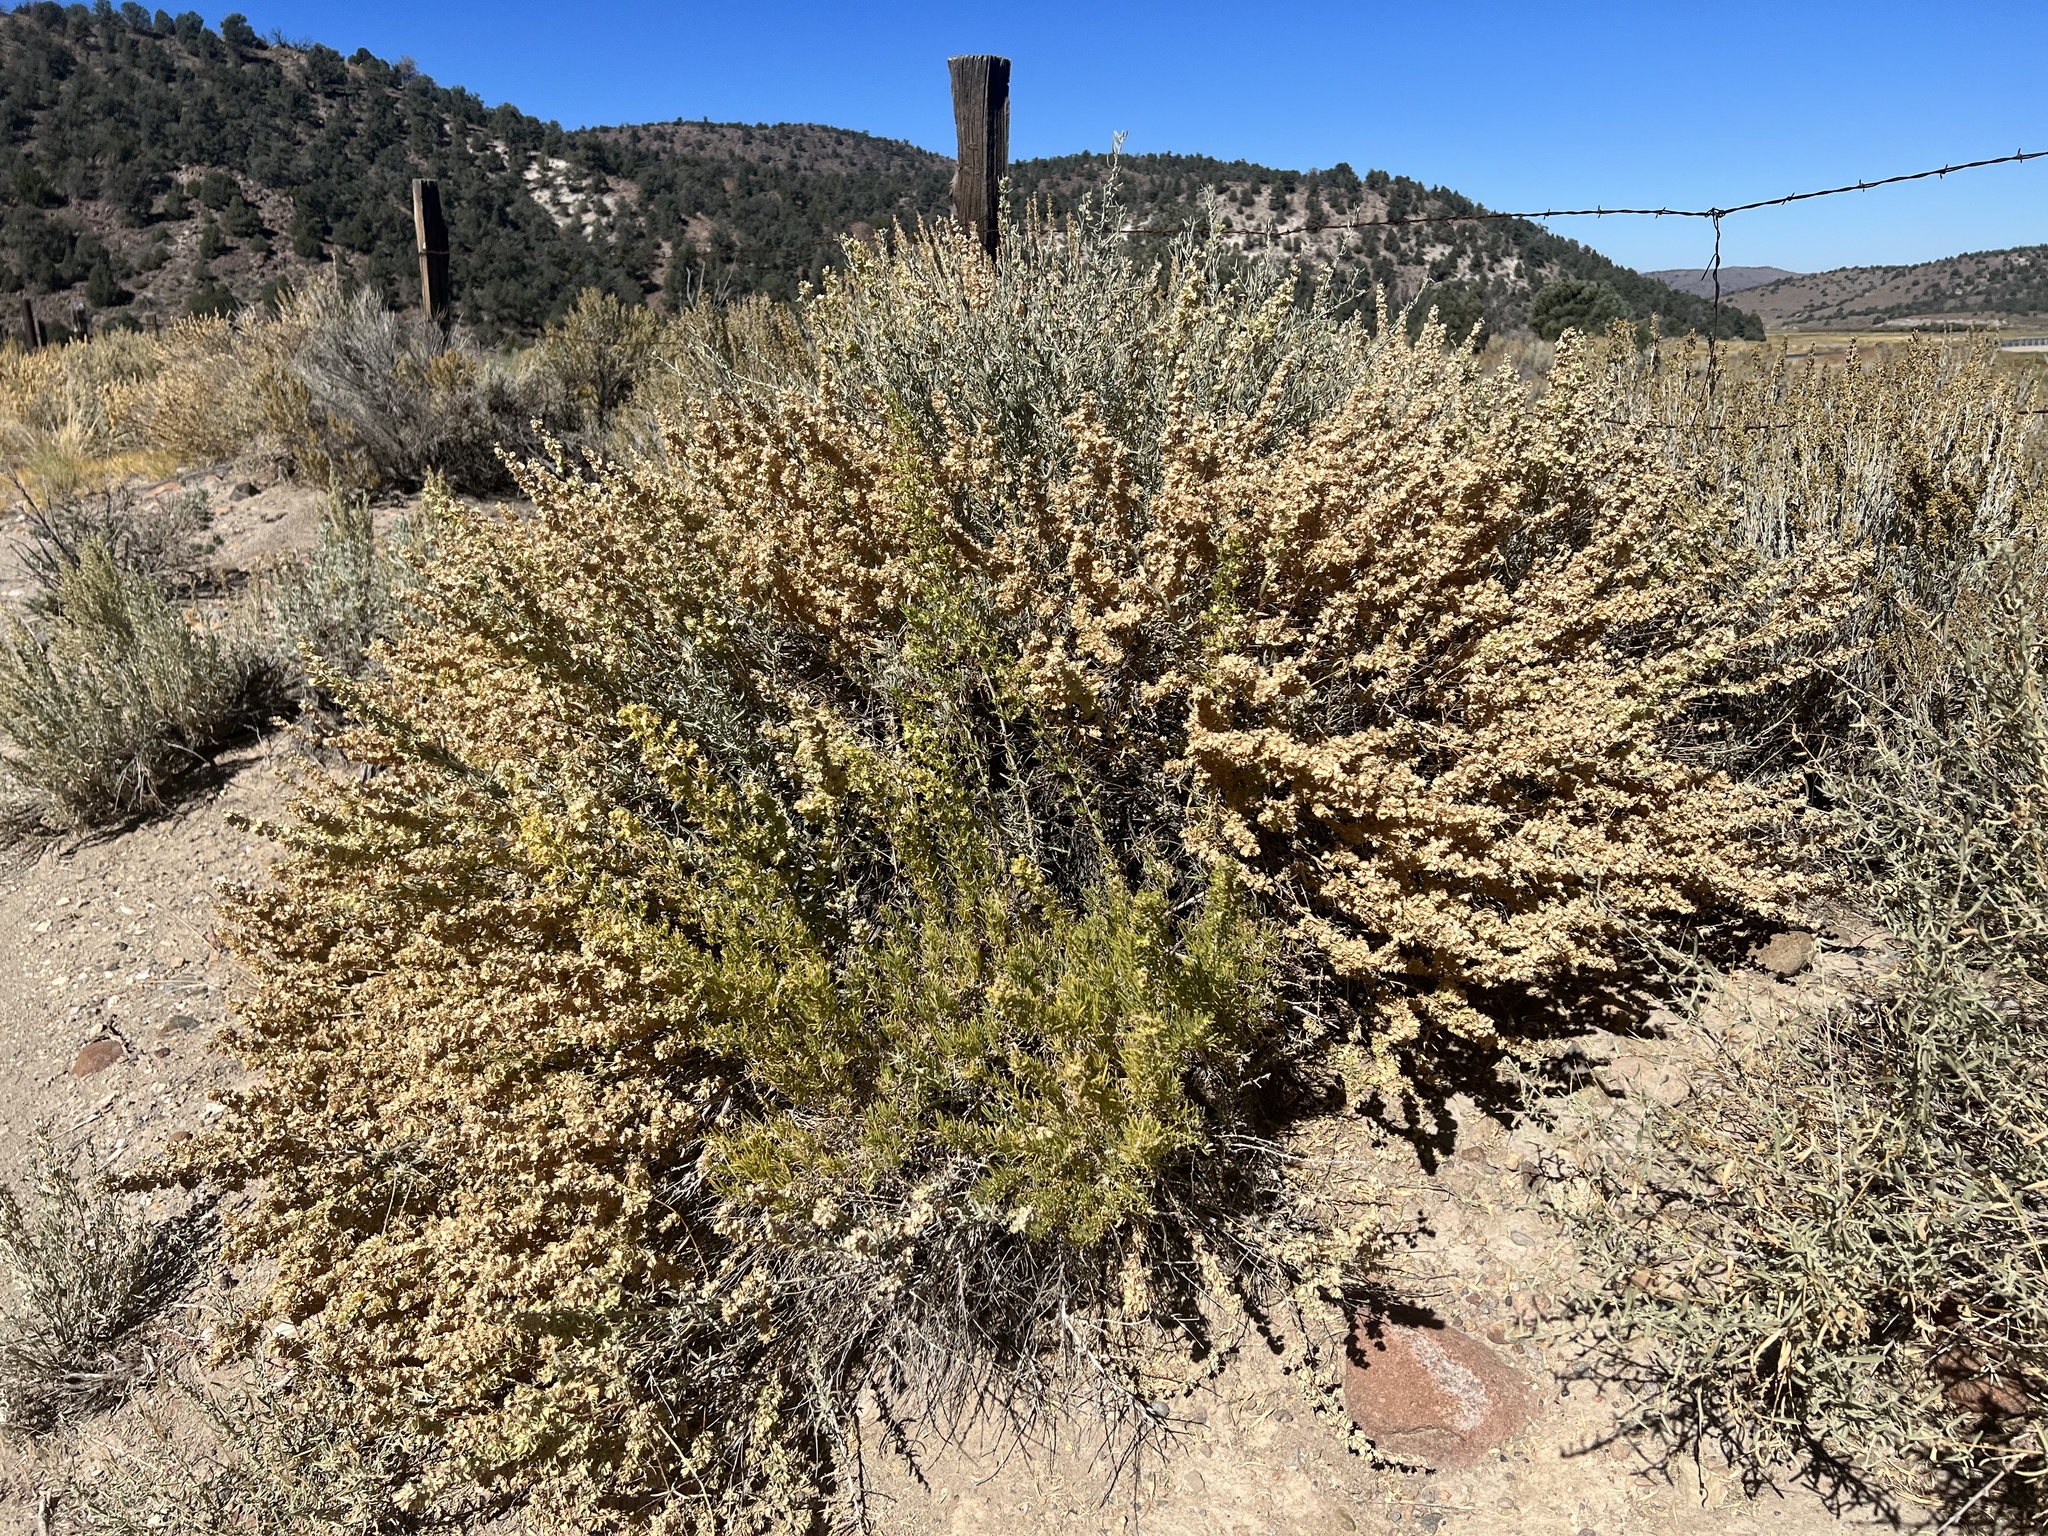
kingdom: Plantae
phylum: Tracheophyta
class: Magnoliopsida
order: Caryophyllales
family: Amaranthaceae
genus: Atriplex
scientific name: Atriplex canescens
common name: Four-wing saltbush
